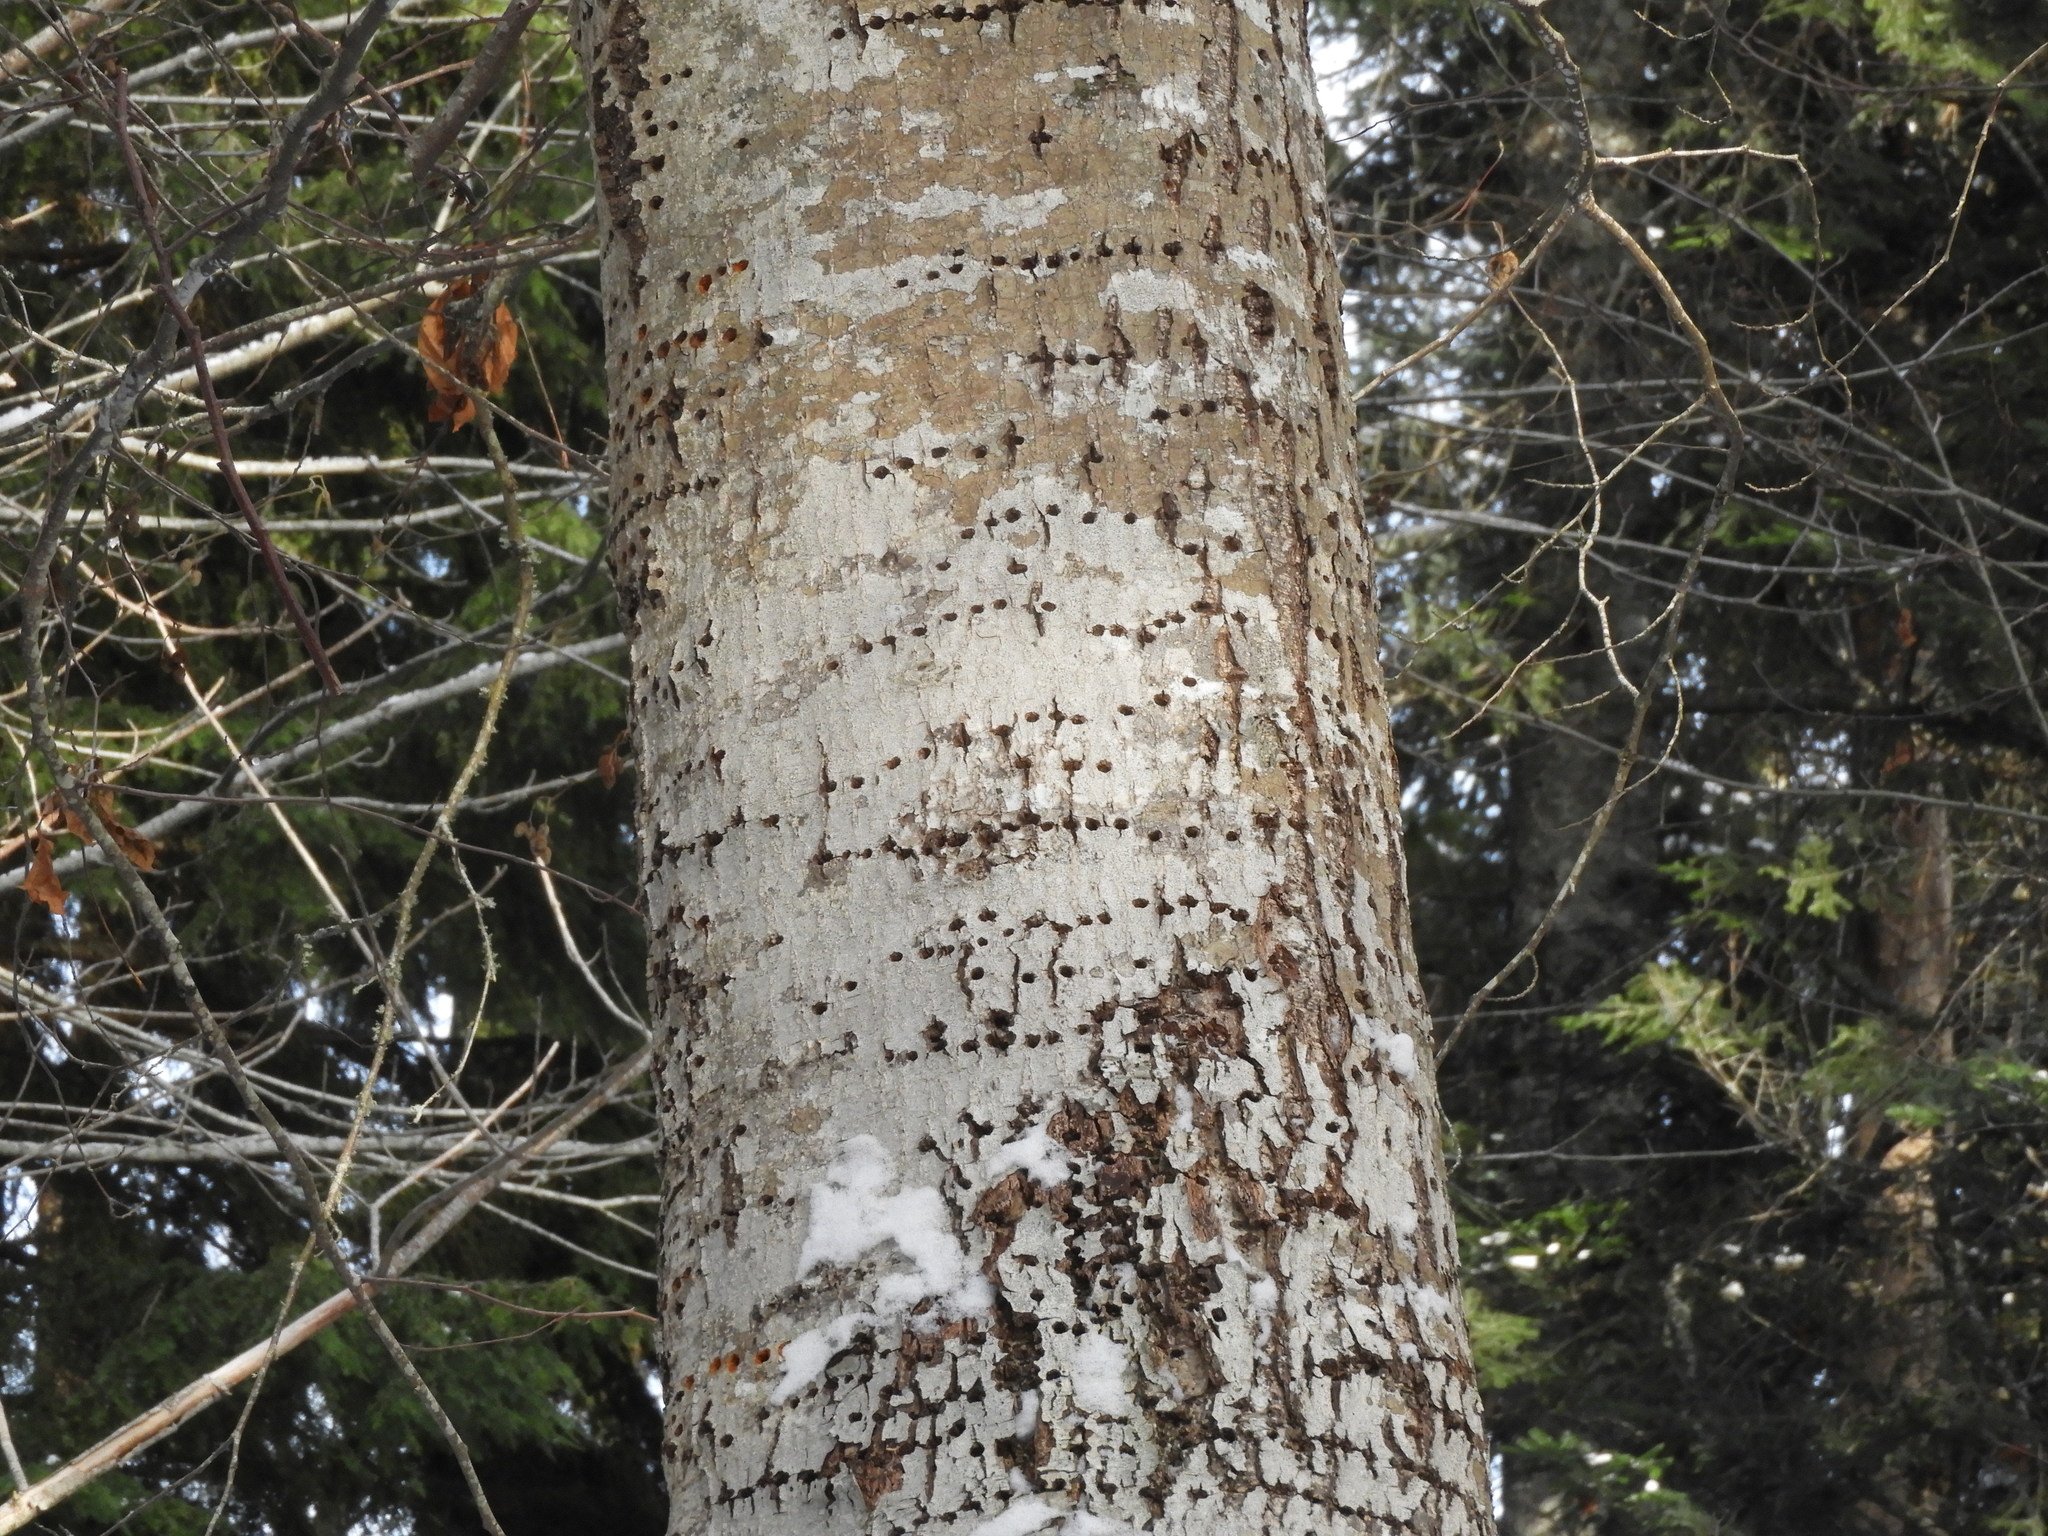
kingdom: Animalia
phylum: Chordata
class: Aves
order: Piciformes
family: Picidae
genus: Sphyrapicus
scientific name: Sphyrapicus ruber
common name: Red-breasted sapsucker
